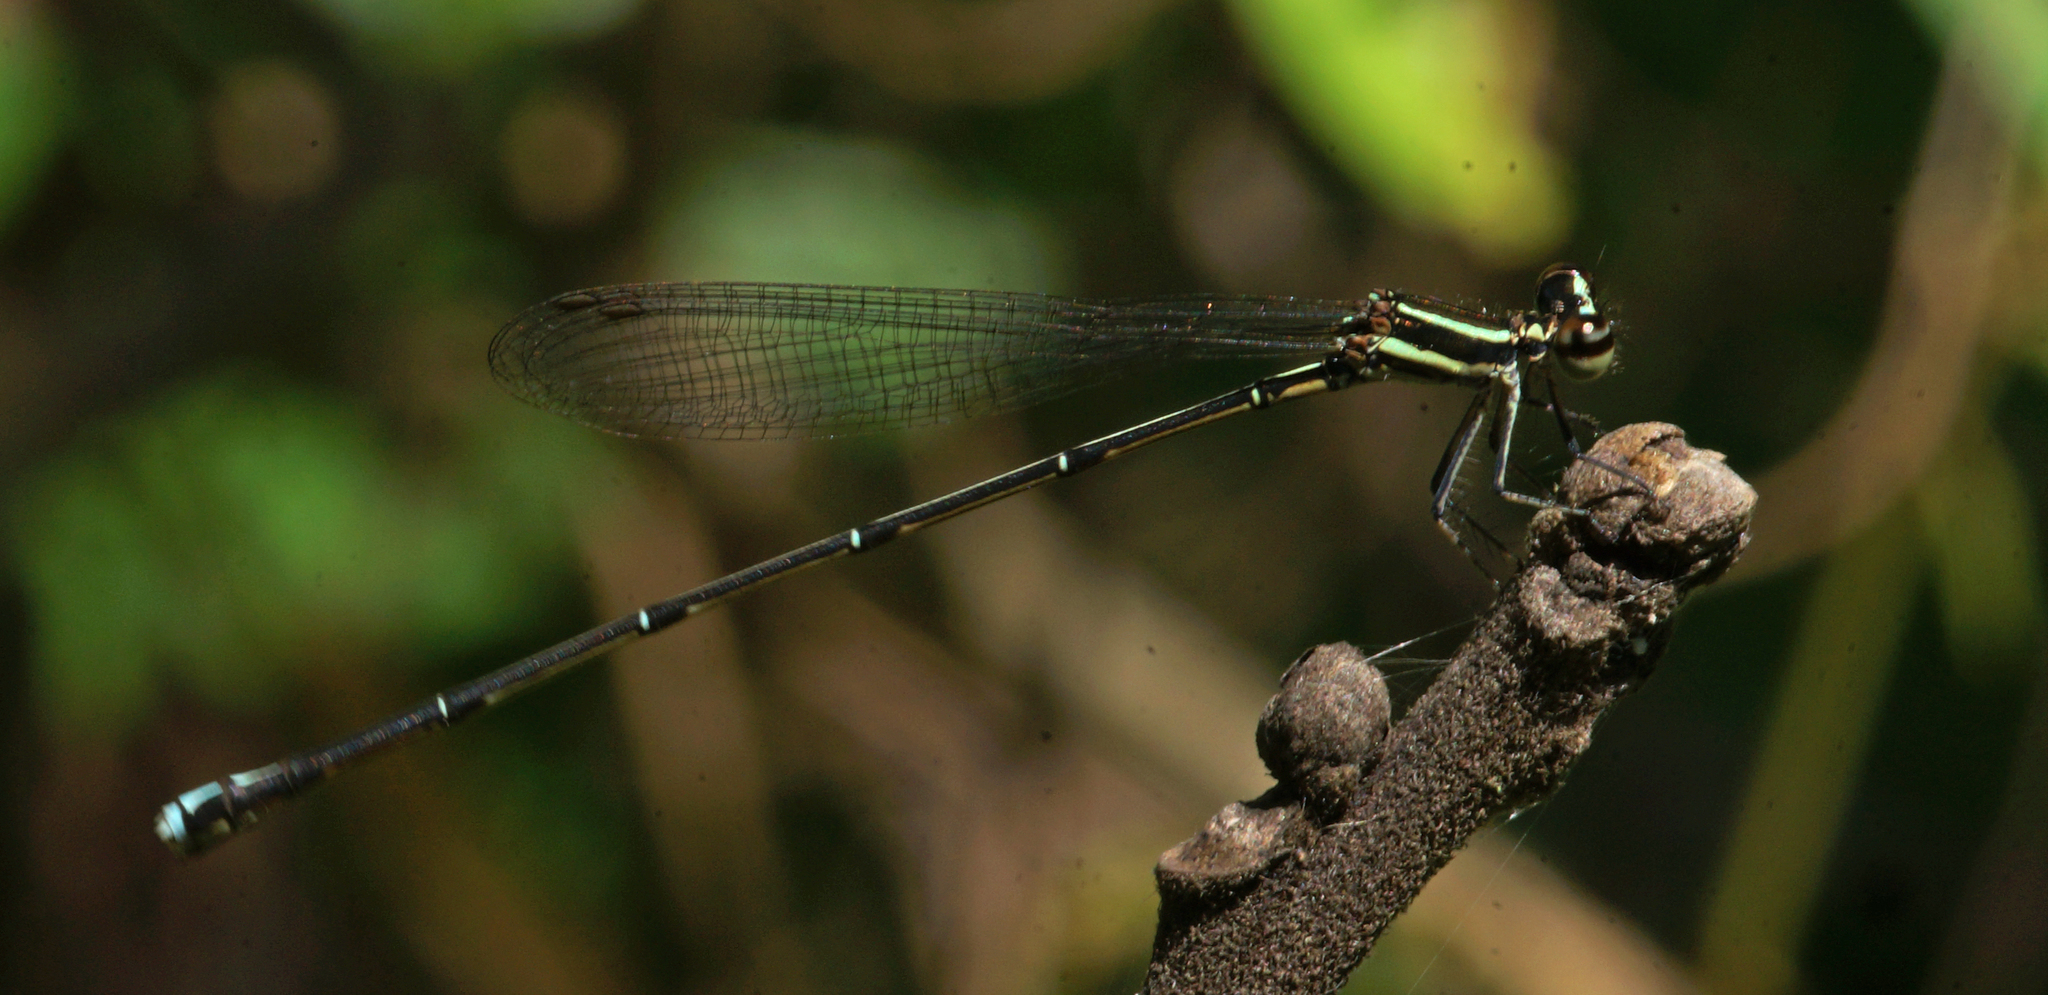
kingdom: Animalia
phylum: Arthropoda
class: Insecta
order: Odonata
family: Platycnemididae
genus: Prodasineura
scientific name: Prodasineura coerulescens
